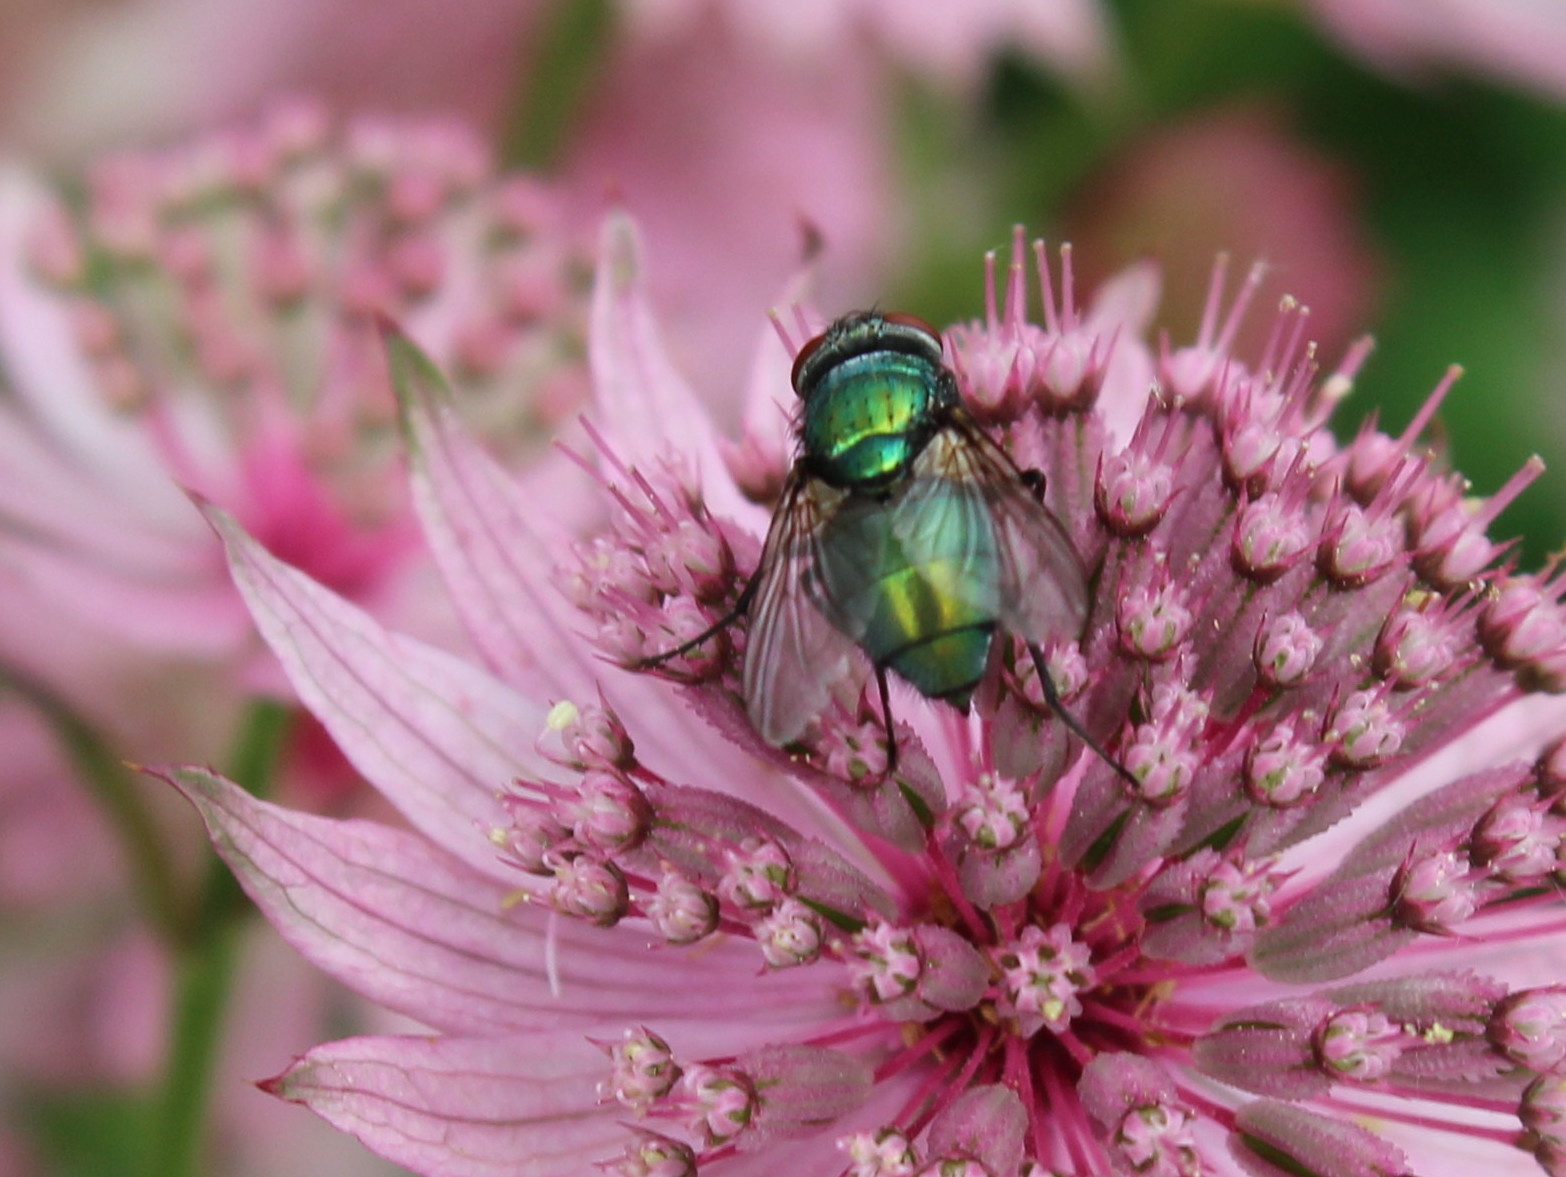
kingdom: Animalia
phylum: Arthropoda
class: Insecta
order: Diptera
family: Calliphoridae
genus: Lucilia
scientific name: Lucilia sericata
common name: Blow fly
